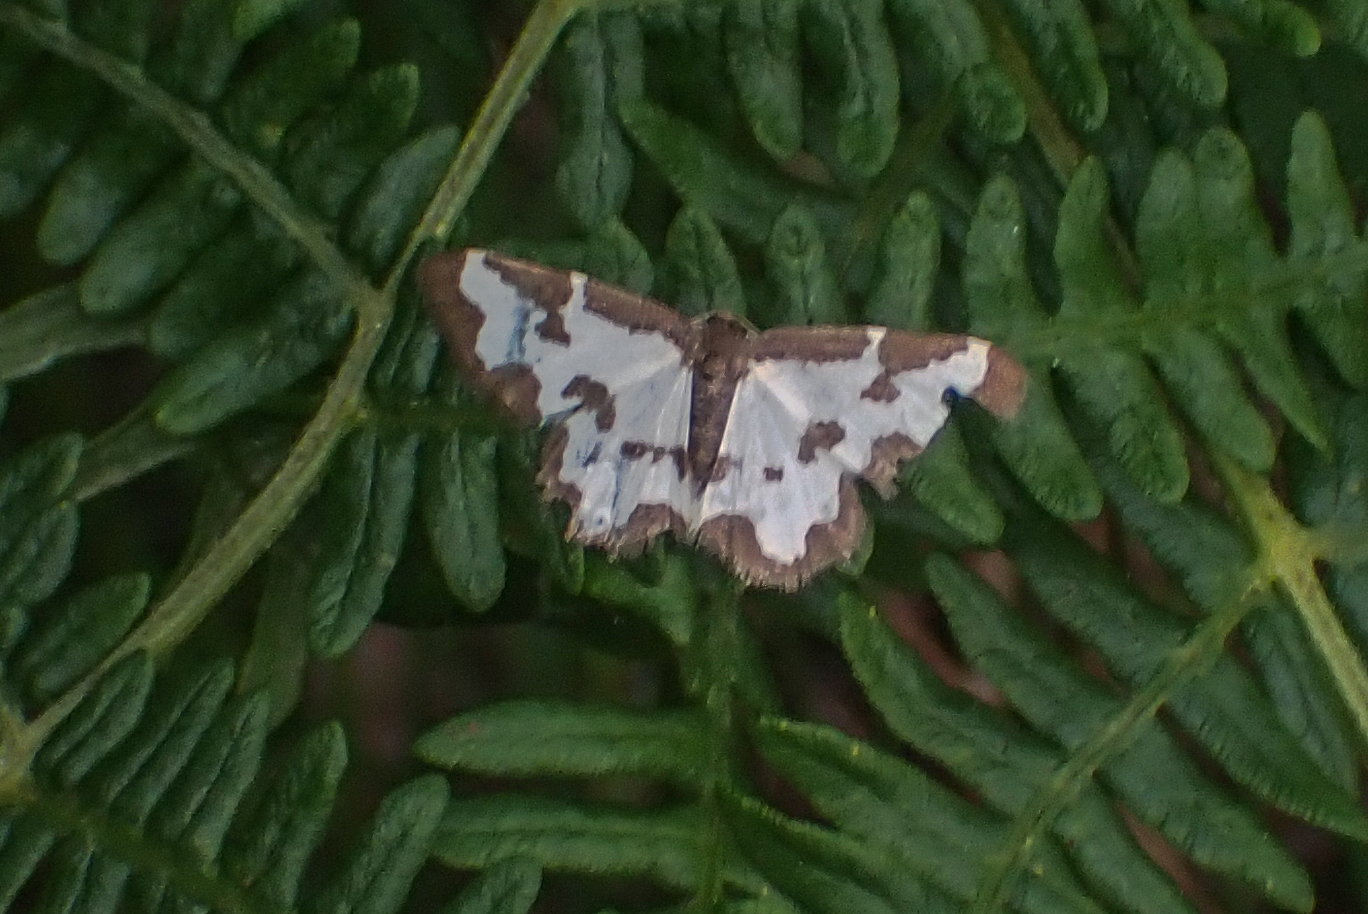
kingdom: Animalia
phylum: Arthropoda
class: Insecta
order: Lepidoptera
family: Geometridae
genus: Lomaspilis
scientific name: Lomaspilis marginata
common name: Clouded border
